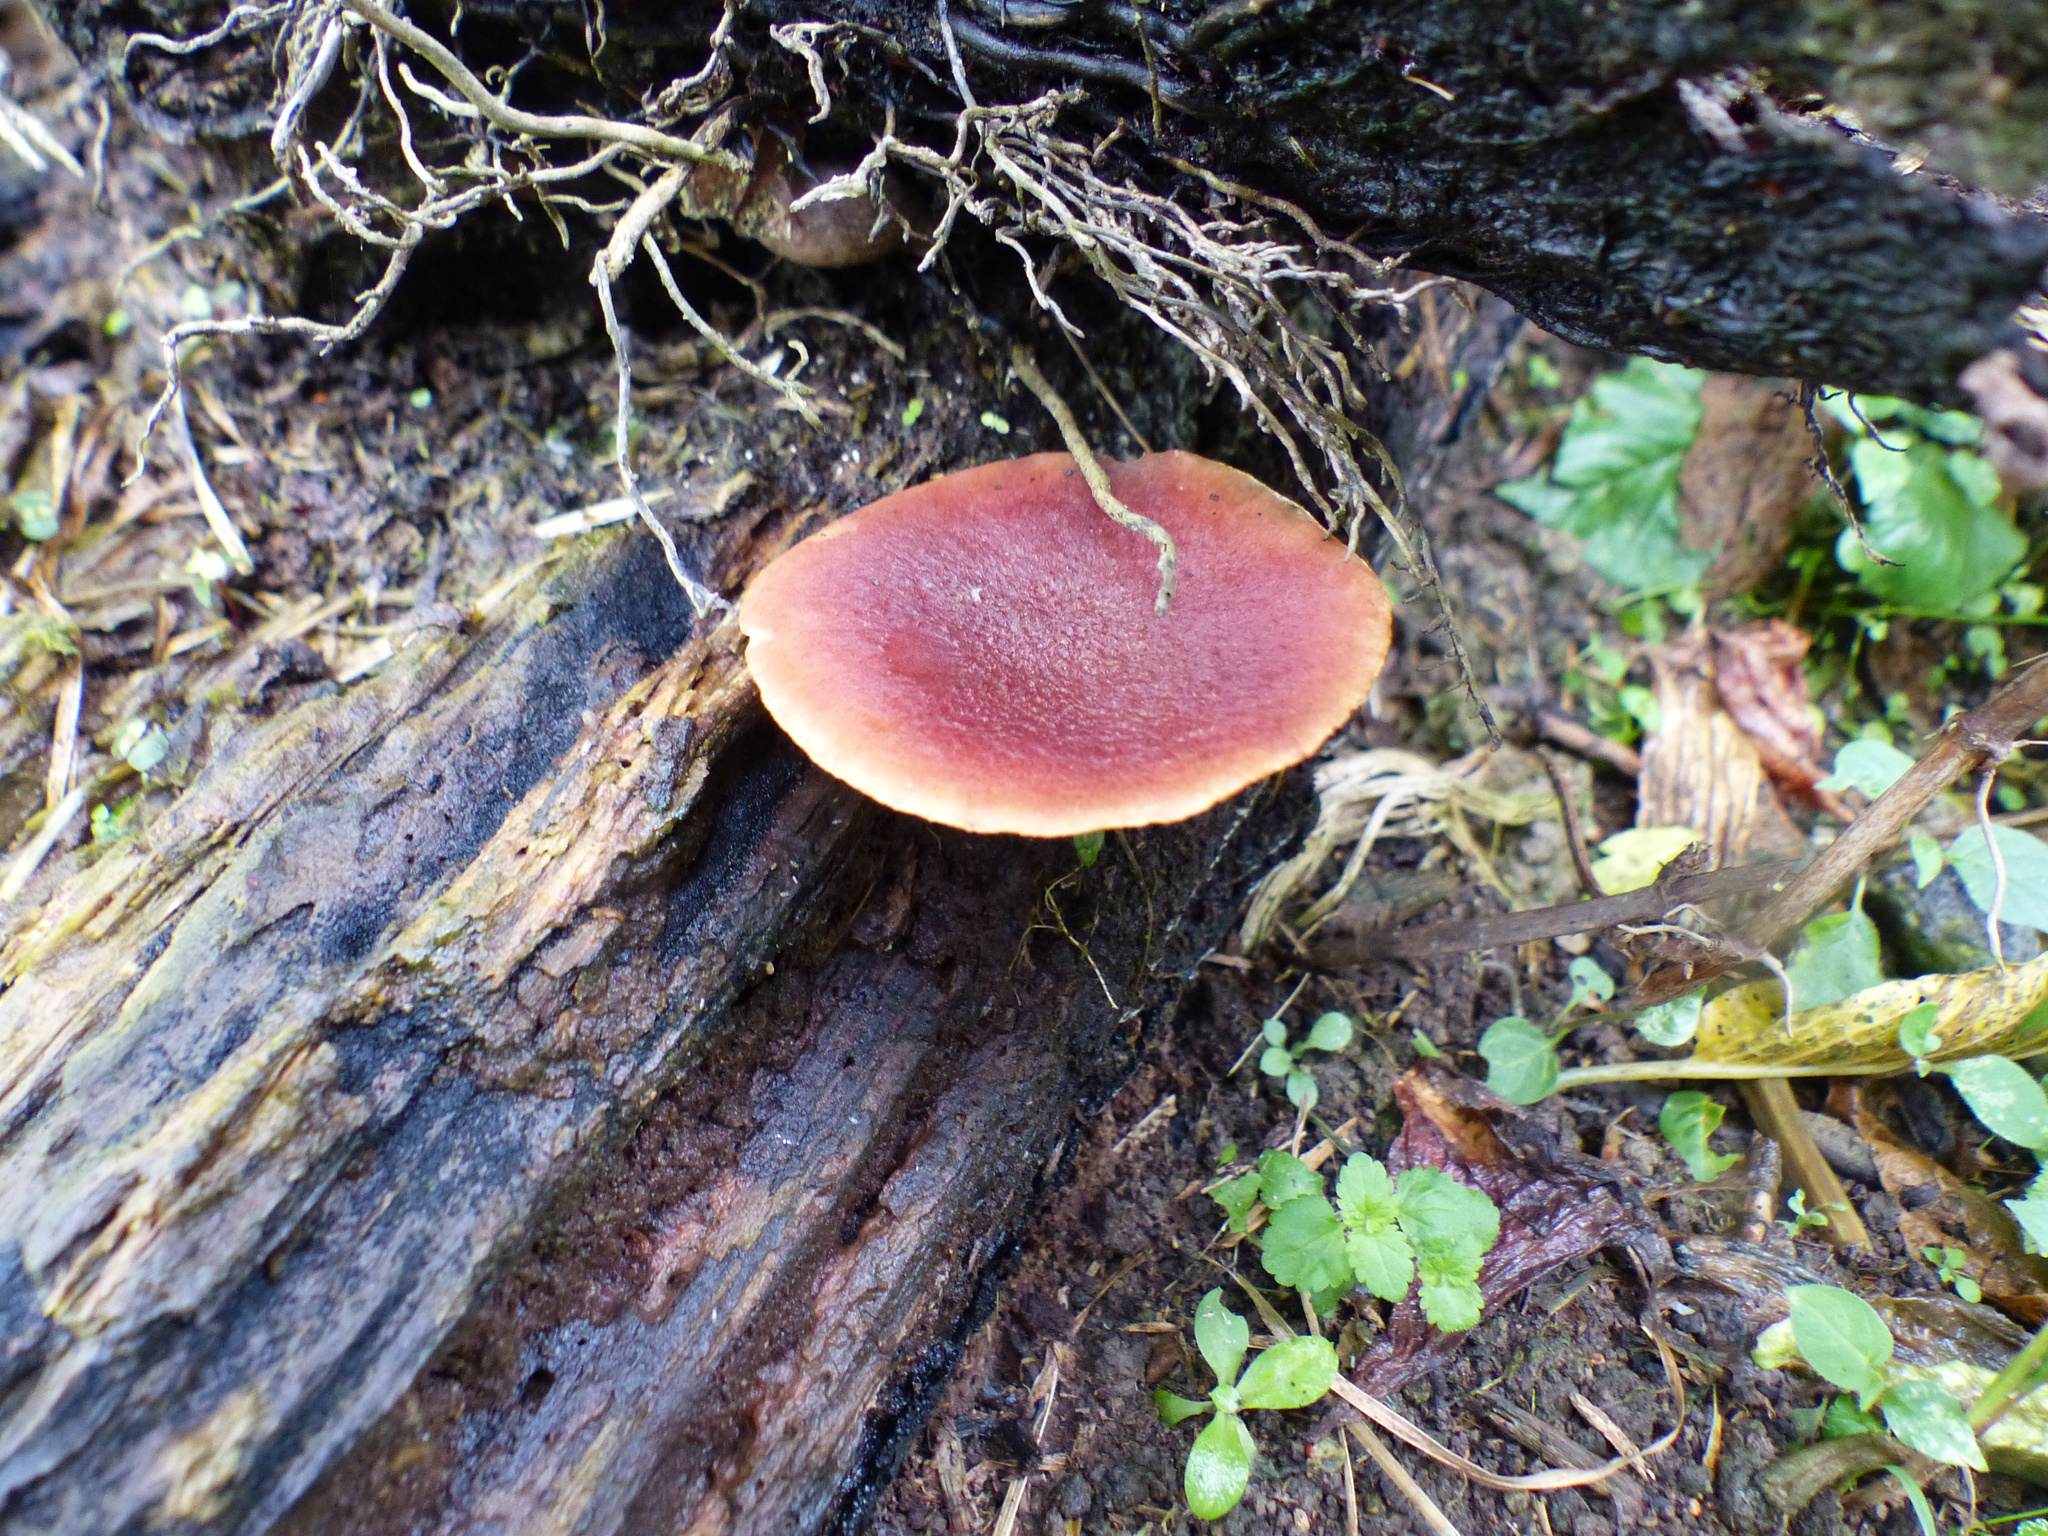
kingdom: Fungi
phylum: Basidiomycota
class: Agaricomycetes
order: Agaricales
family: Hymenogastraceae
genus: Gymnopilus
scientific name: Gymnopilus purpuratus
